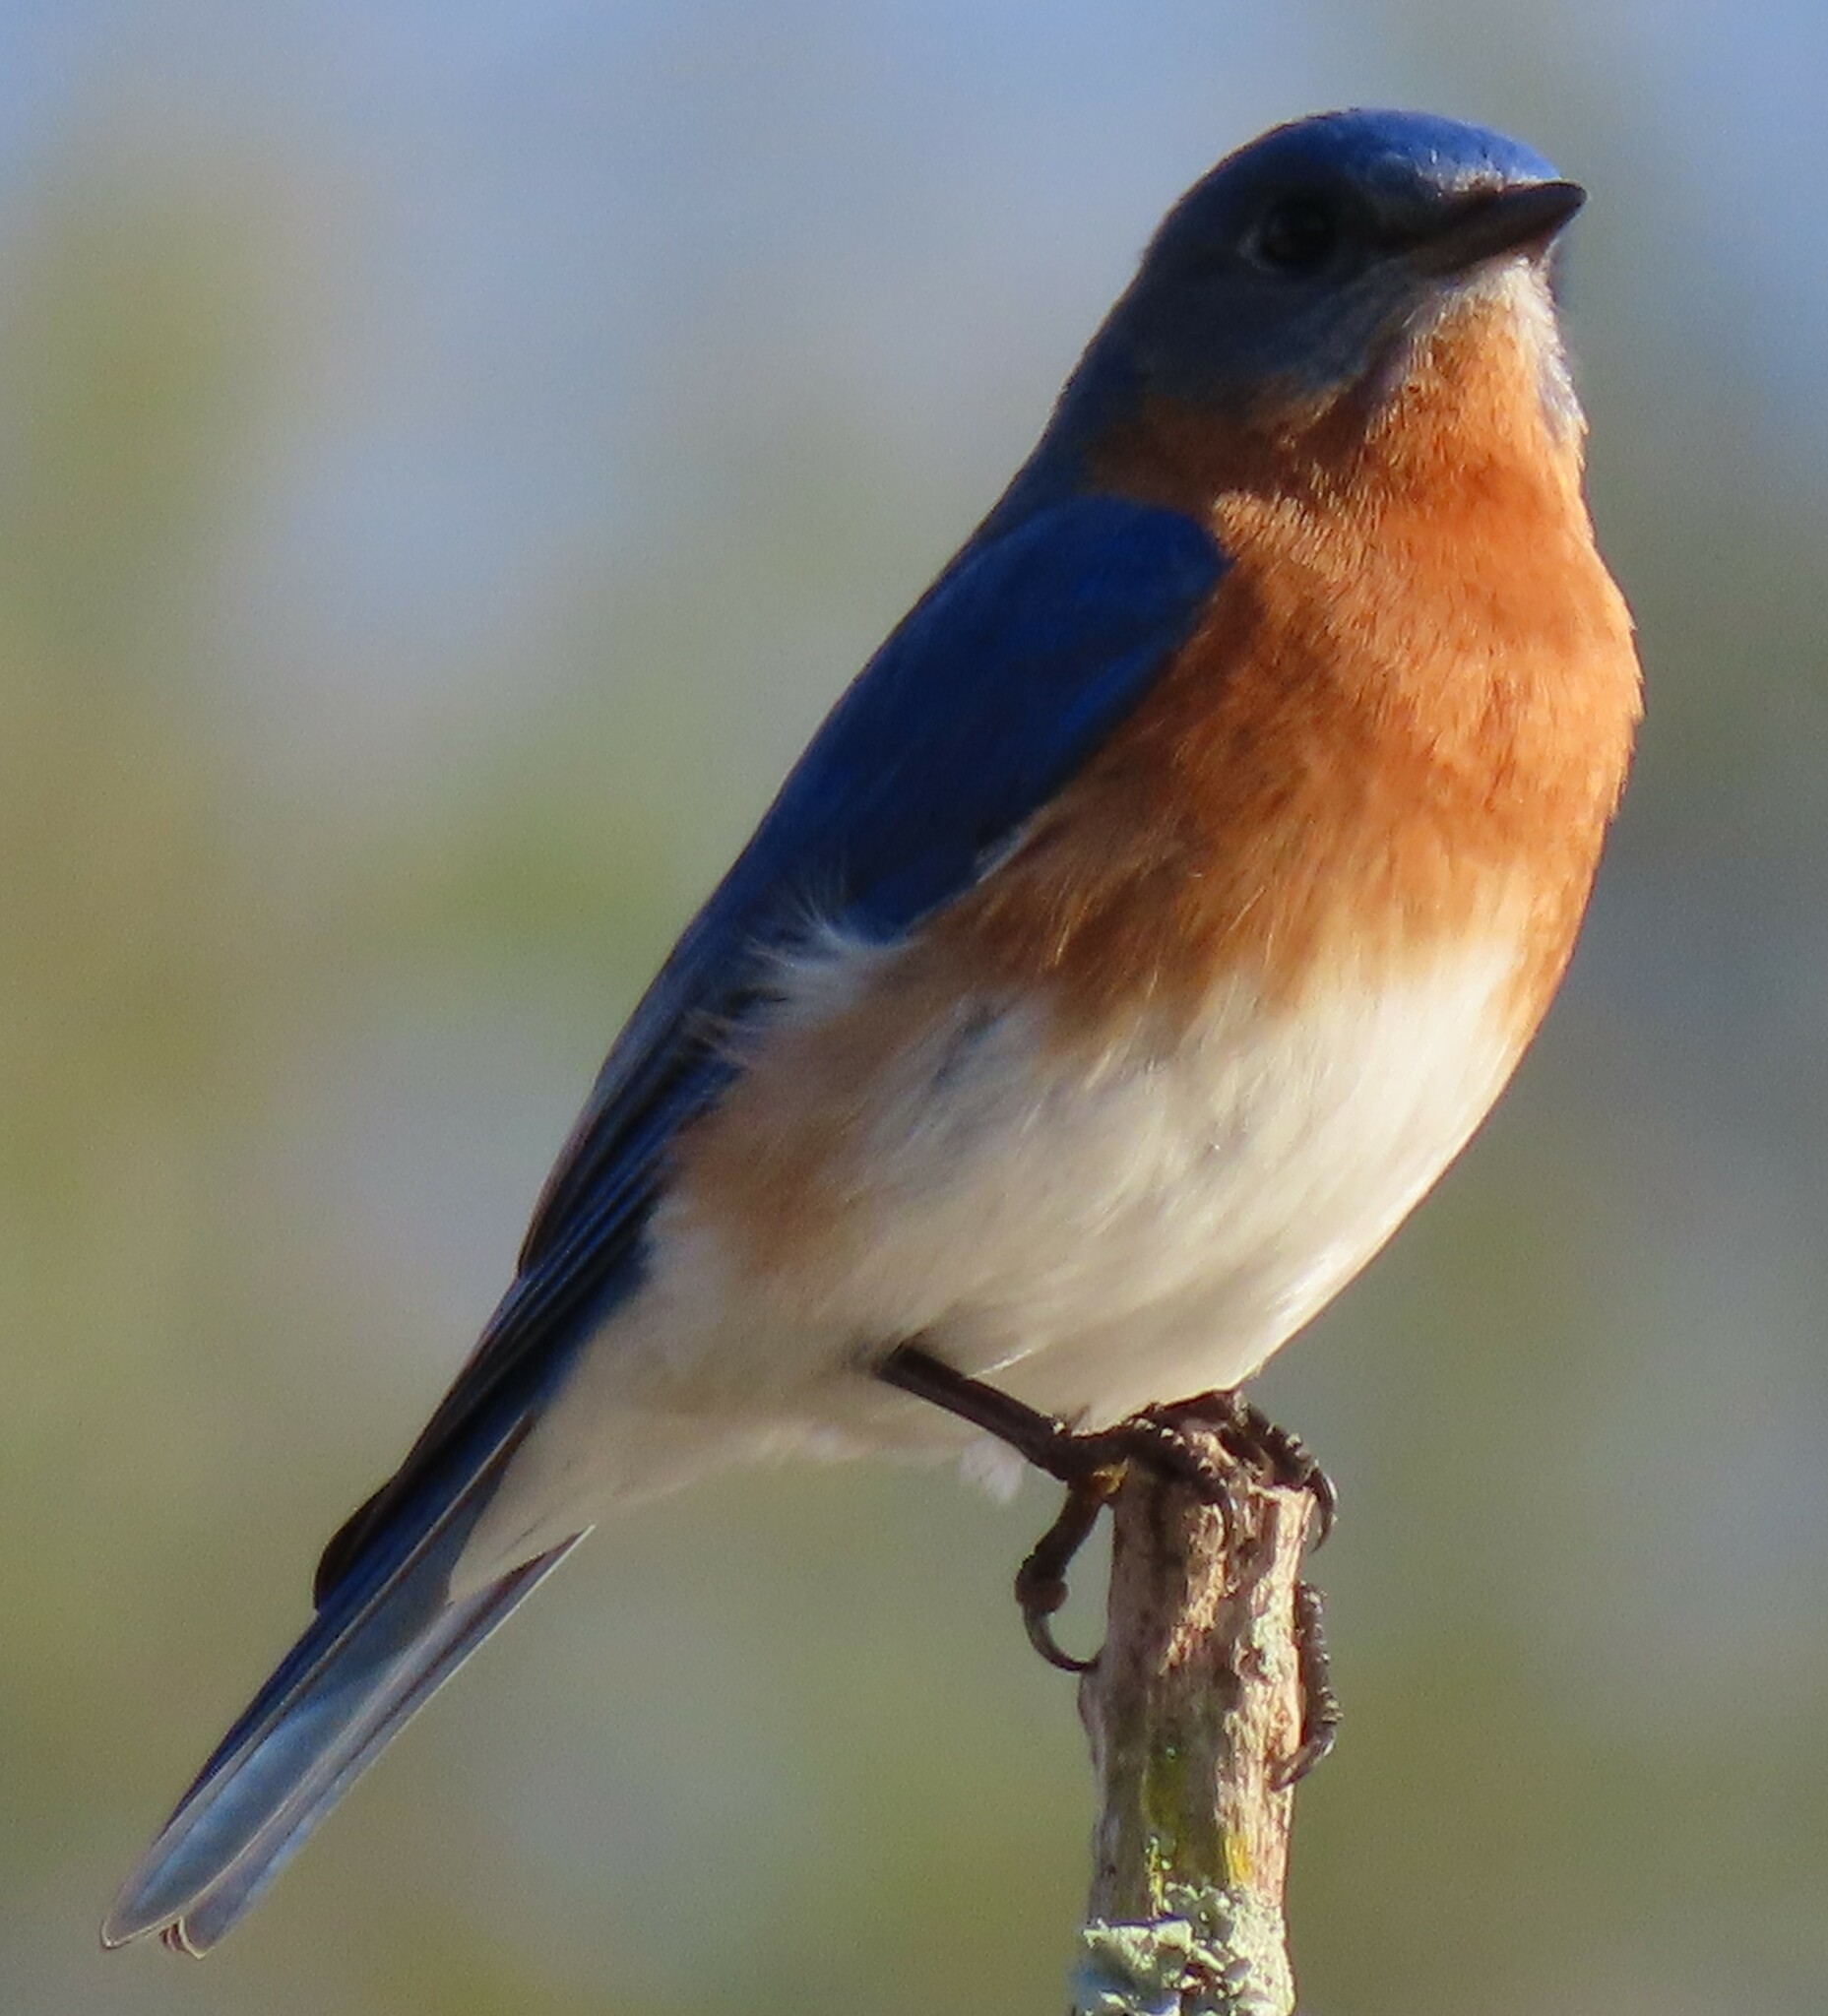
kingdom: Animalia
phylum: Chordata
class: Aves
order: Passeriformes
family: Turdidae
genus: Sialia
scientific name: Sialia sialis
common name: Eastern bluebird
